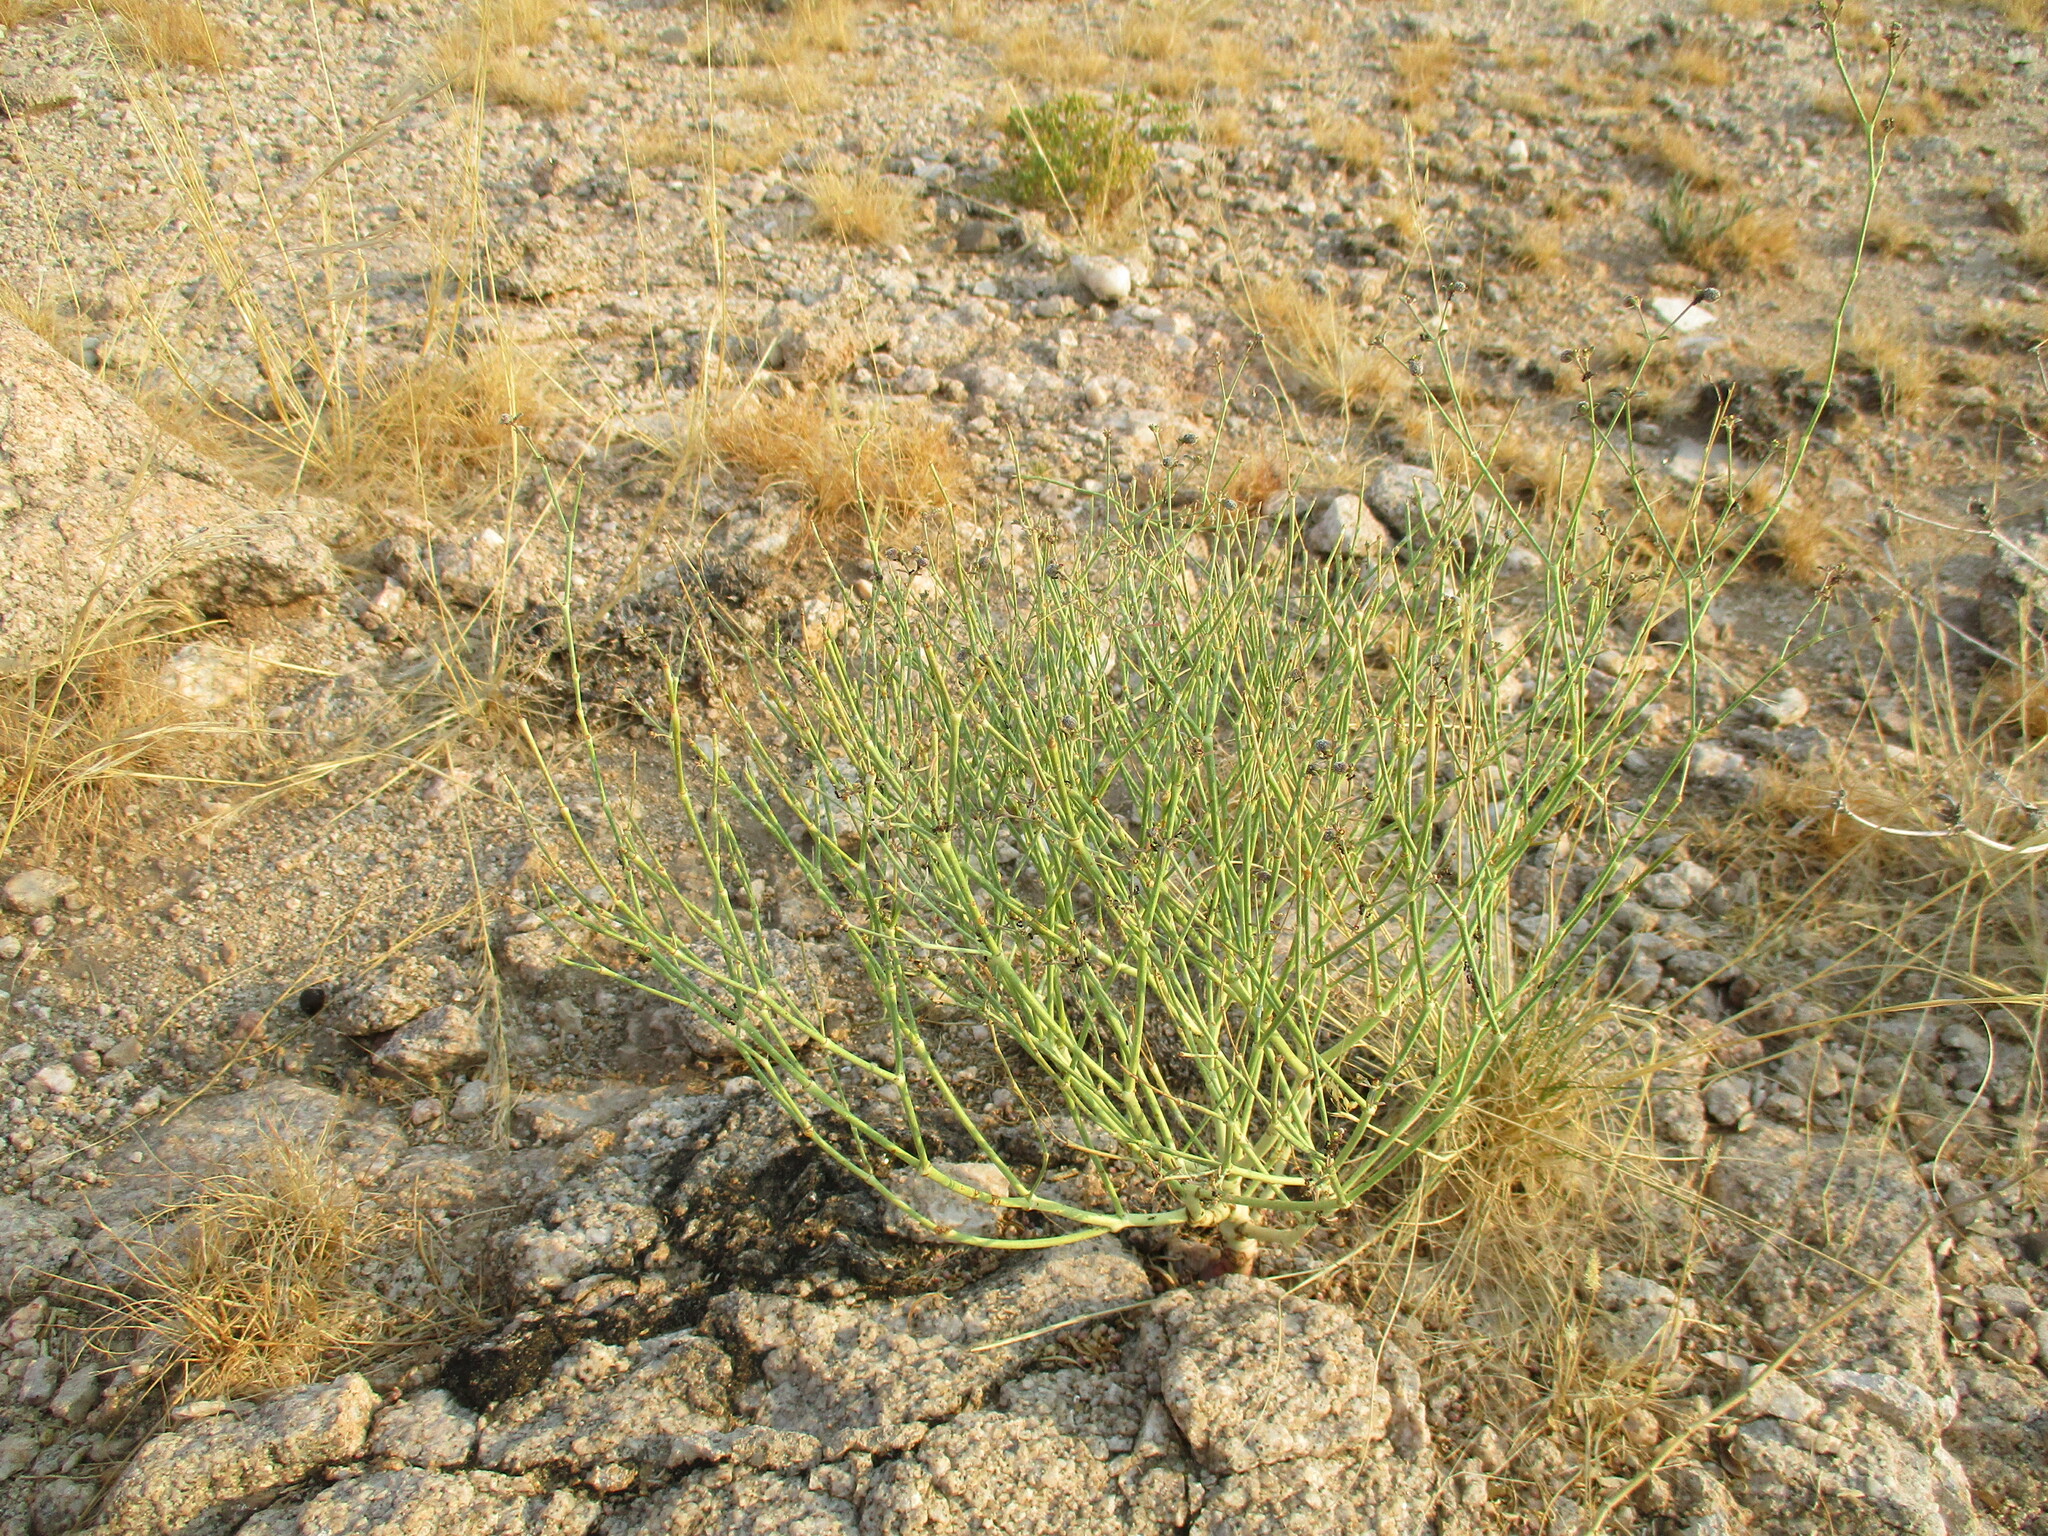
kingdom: Plantae
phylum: Tracheophyta
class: Magnoliopsida
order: Malpighiales
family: Euphorbiaceae
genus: Euphorbia
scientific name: Euphorbia glanduligera
